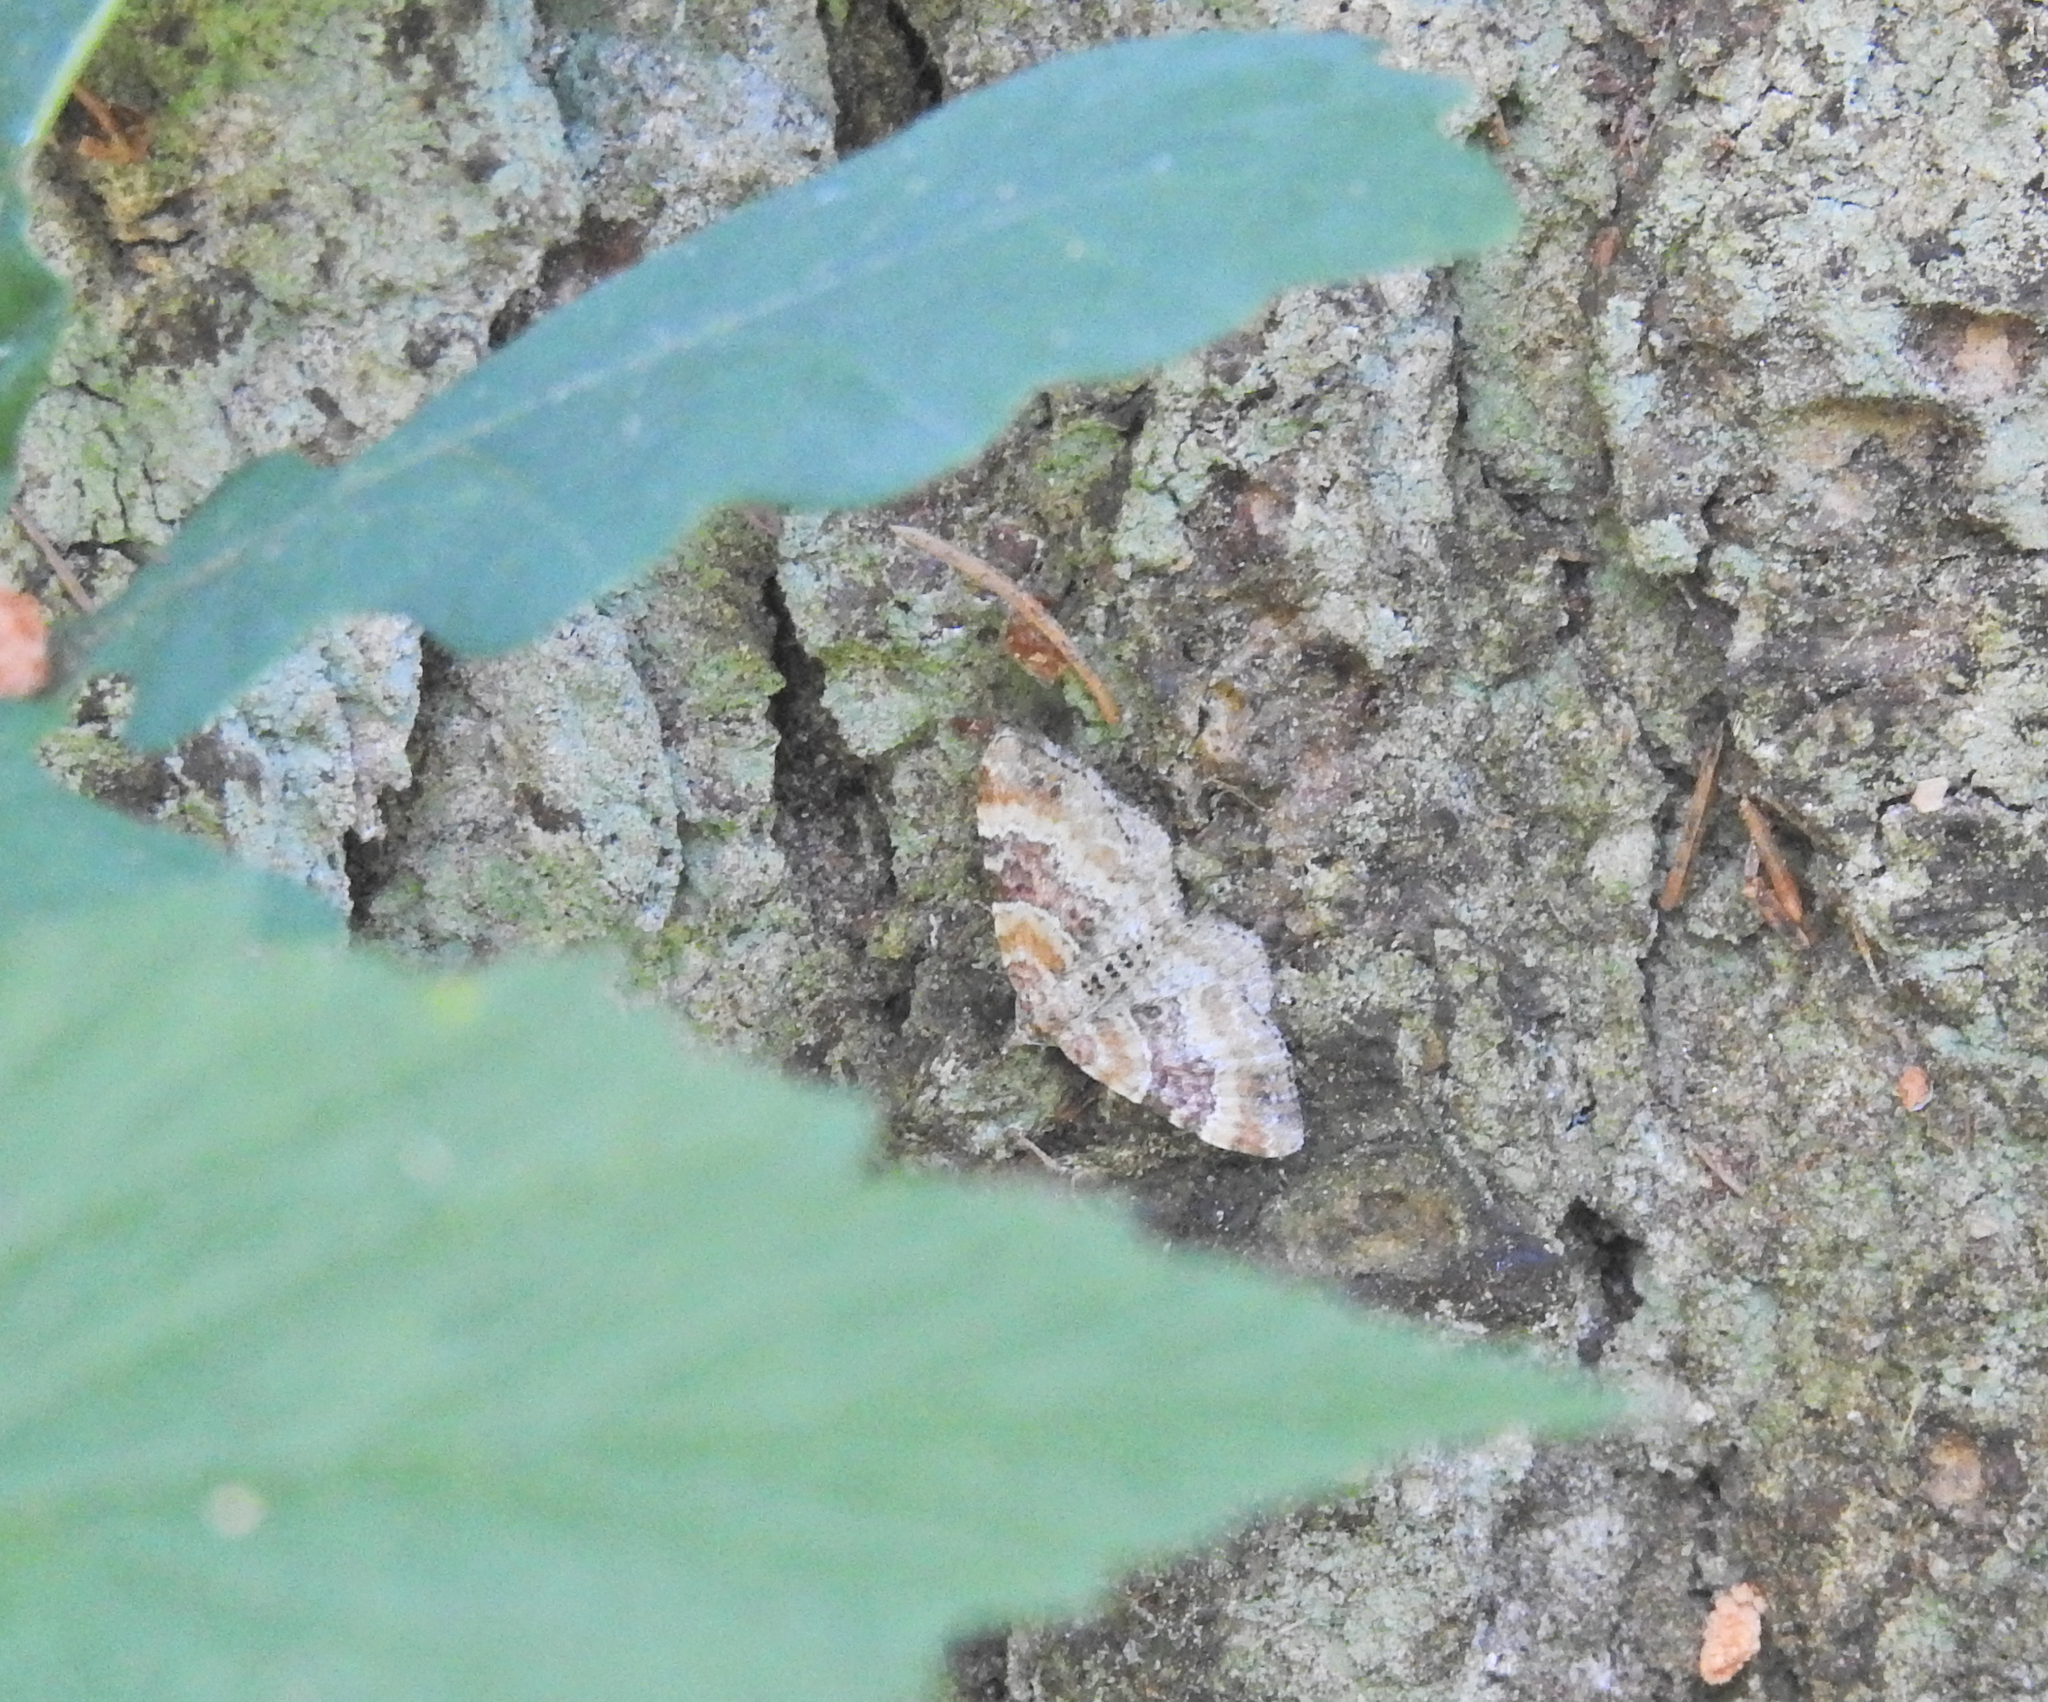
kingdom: Animalia
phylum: Arthropoda
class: Insecta
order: Lepidoptera
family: Geometridae
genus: Xanthorhoe
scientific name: Xanthorhoe spadicearia
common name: Red twin-spot carpet
